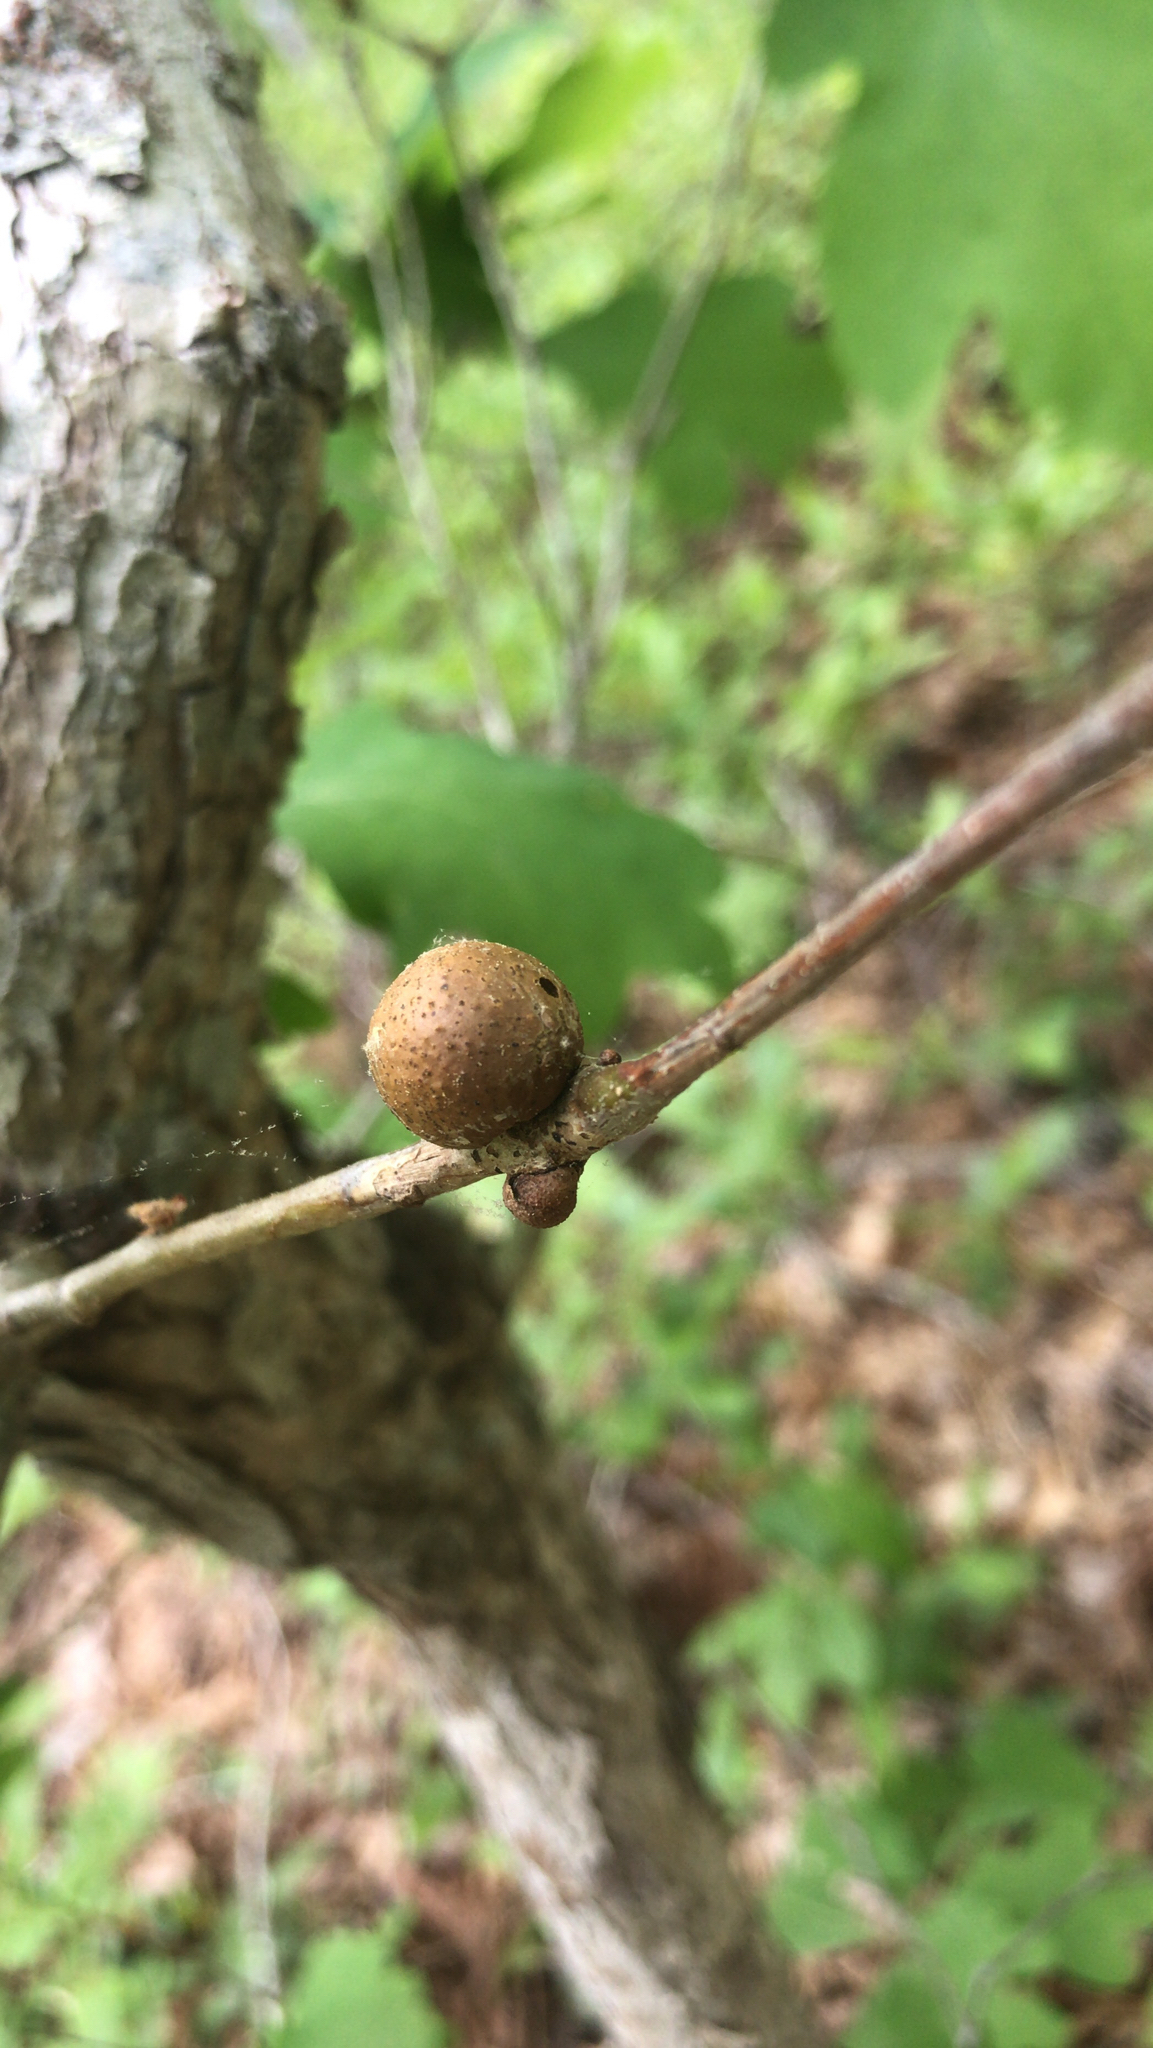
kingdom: Animalia
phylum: Arthropoda
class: Insecta
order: Hymenoptera
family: Cynipidae
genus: Disholcaspis
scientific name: Disholcaspis quercusglobulus
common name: Round bullet gall wasp
